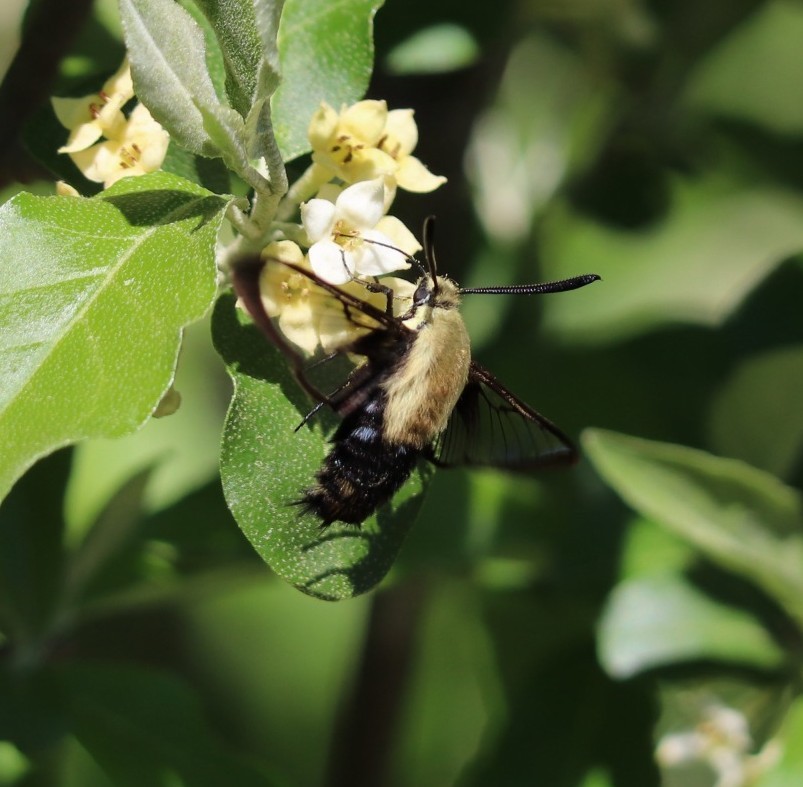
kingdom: Animalia
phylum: Arthropoda
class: Insecta
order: Lepidoptera
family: Sphingidae
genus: Hemaris
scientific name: Hemaris diffinis
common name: Bumblebee moth
